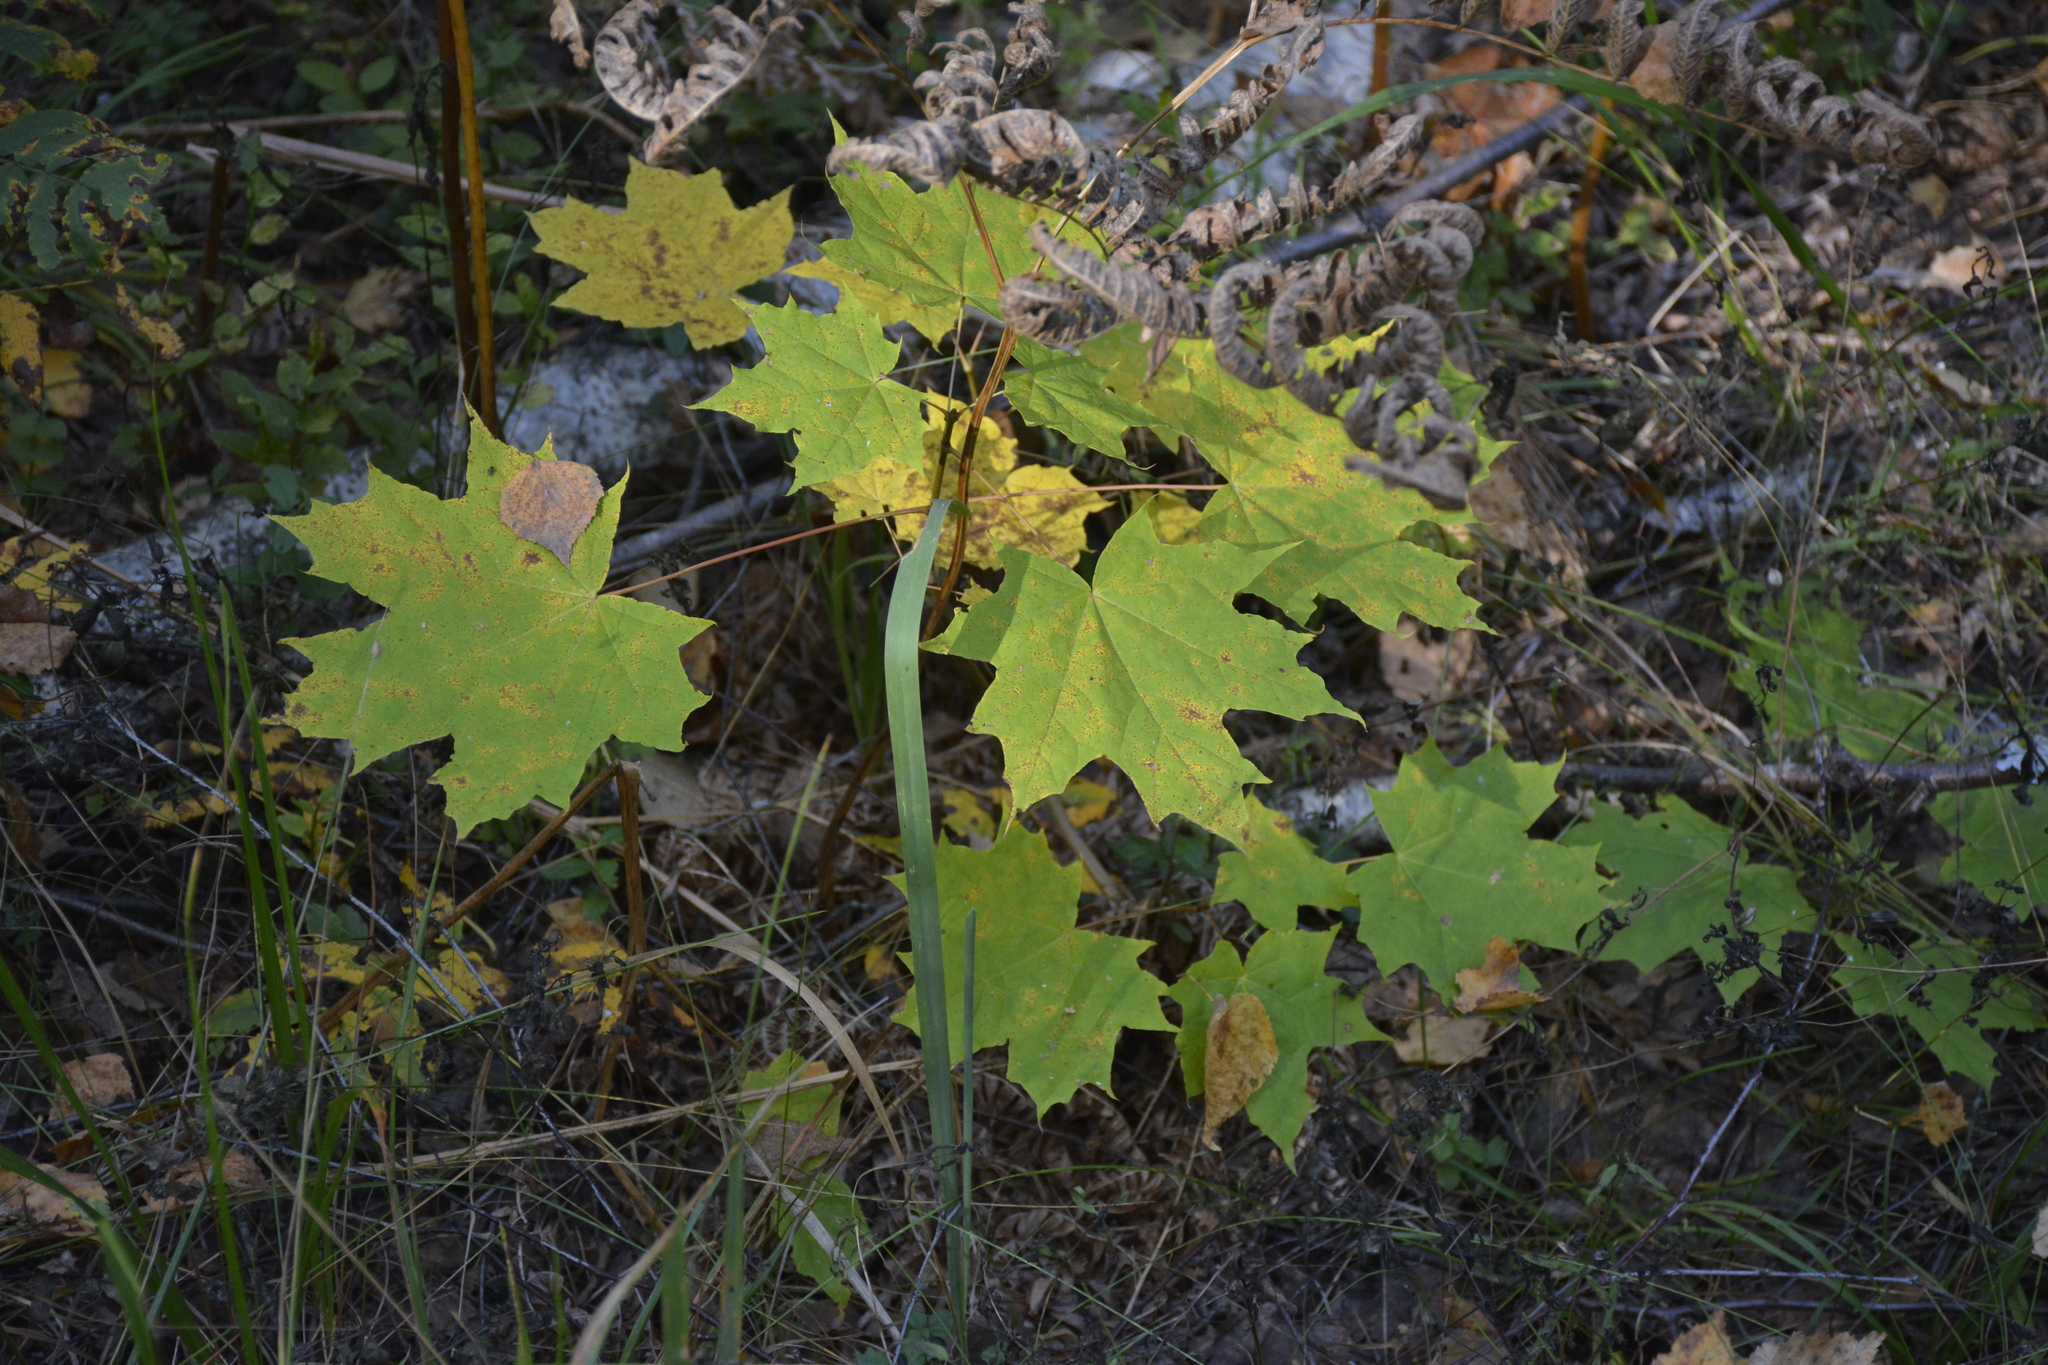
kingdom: Plantae
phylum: Tracheophyta
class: Magnoliopsida
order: Sapindales
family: Sapindaceae
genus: Acer
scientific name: Acer platanoides
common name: Norway maple
